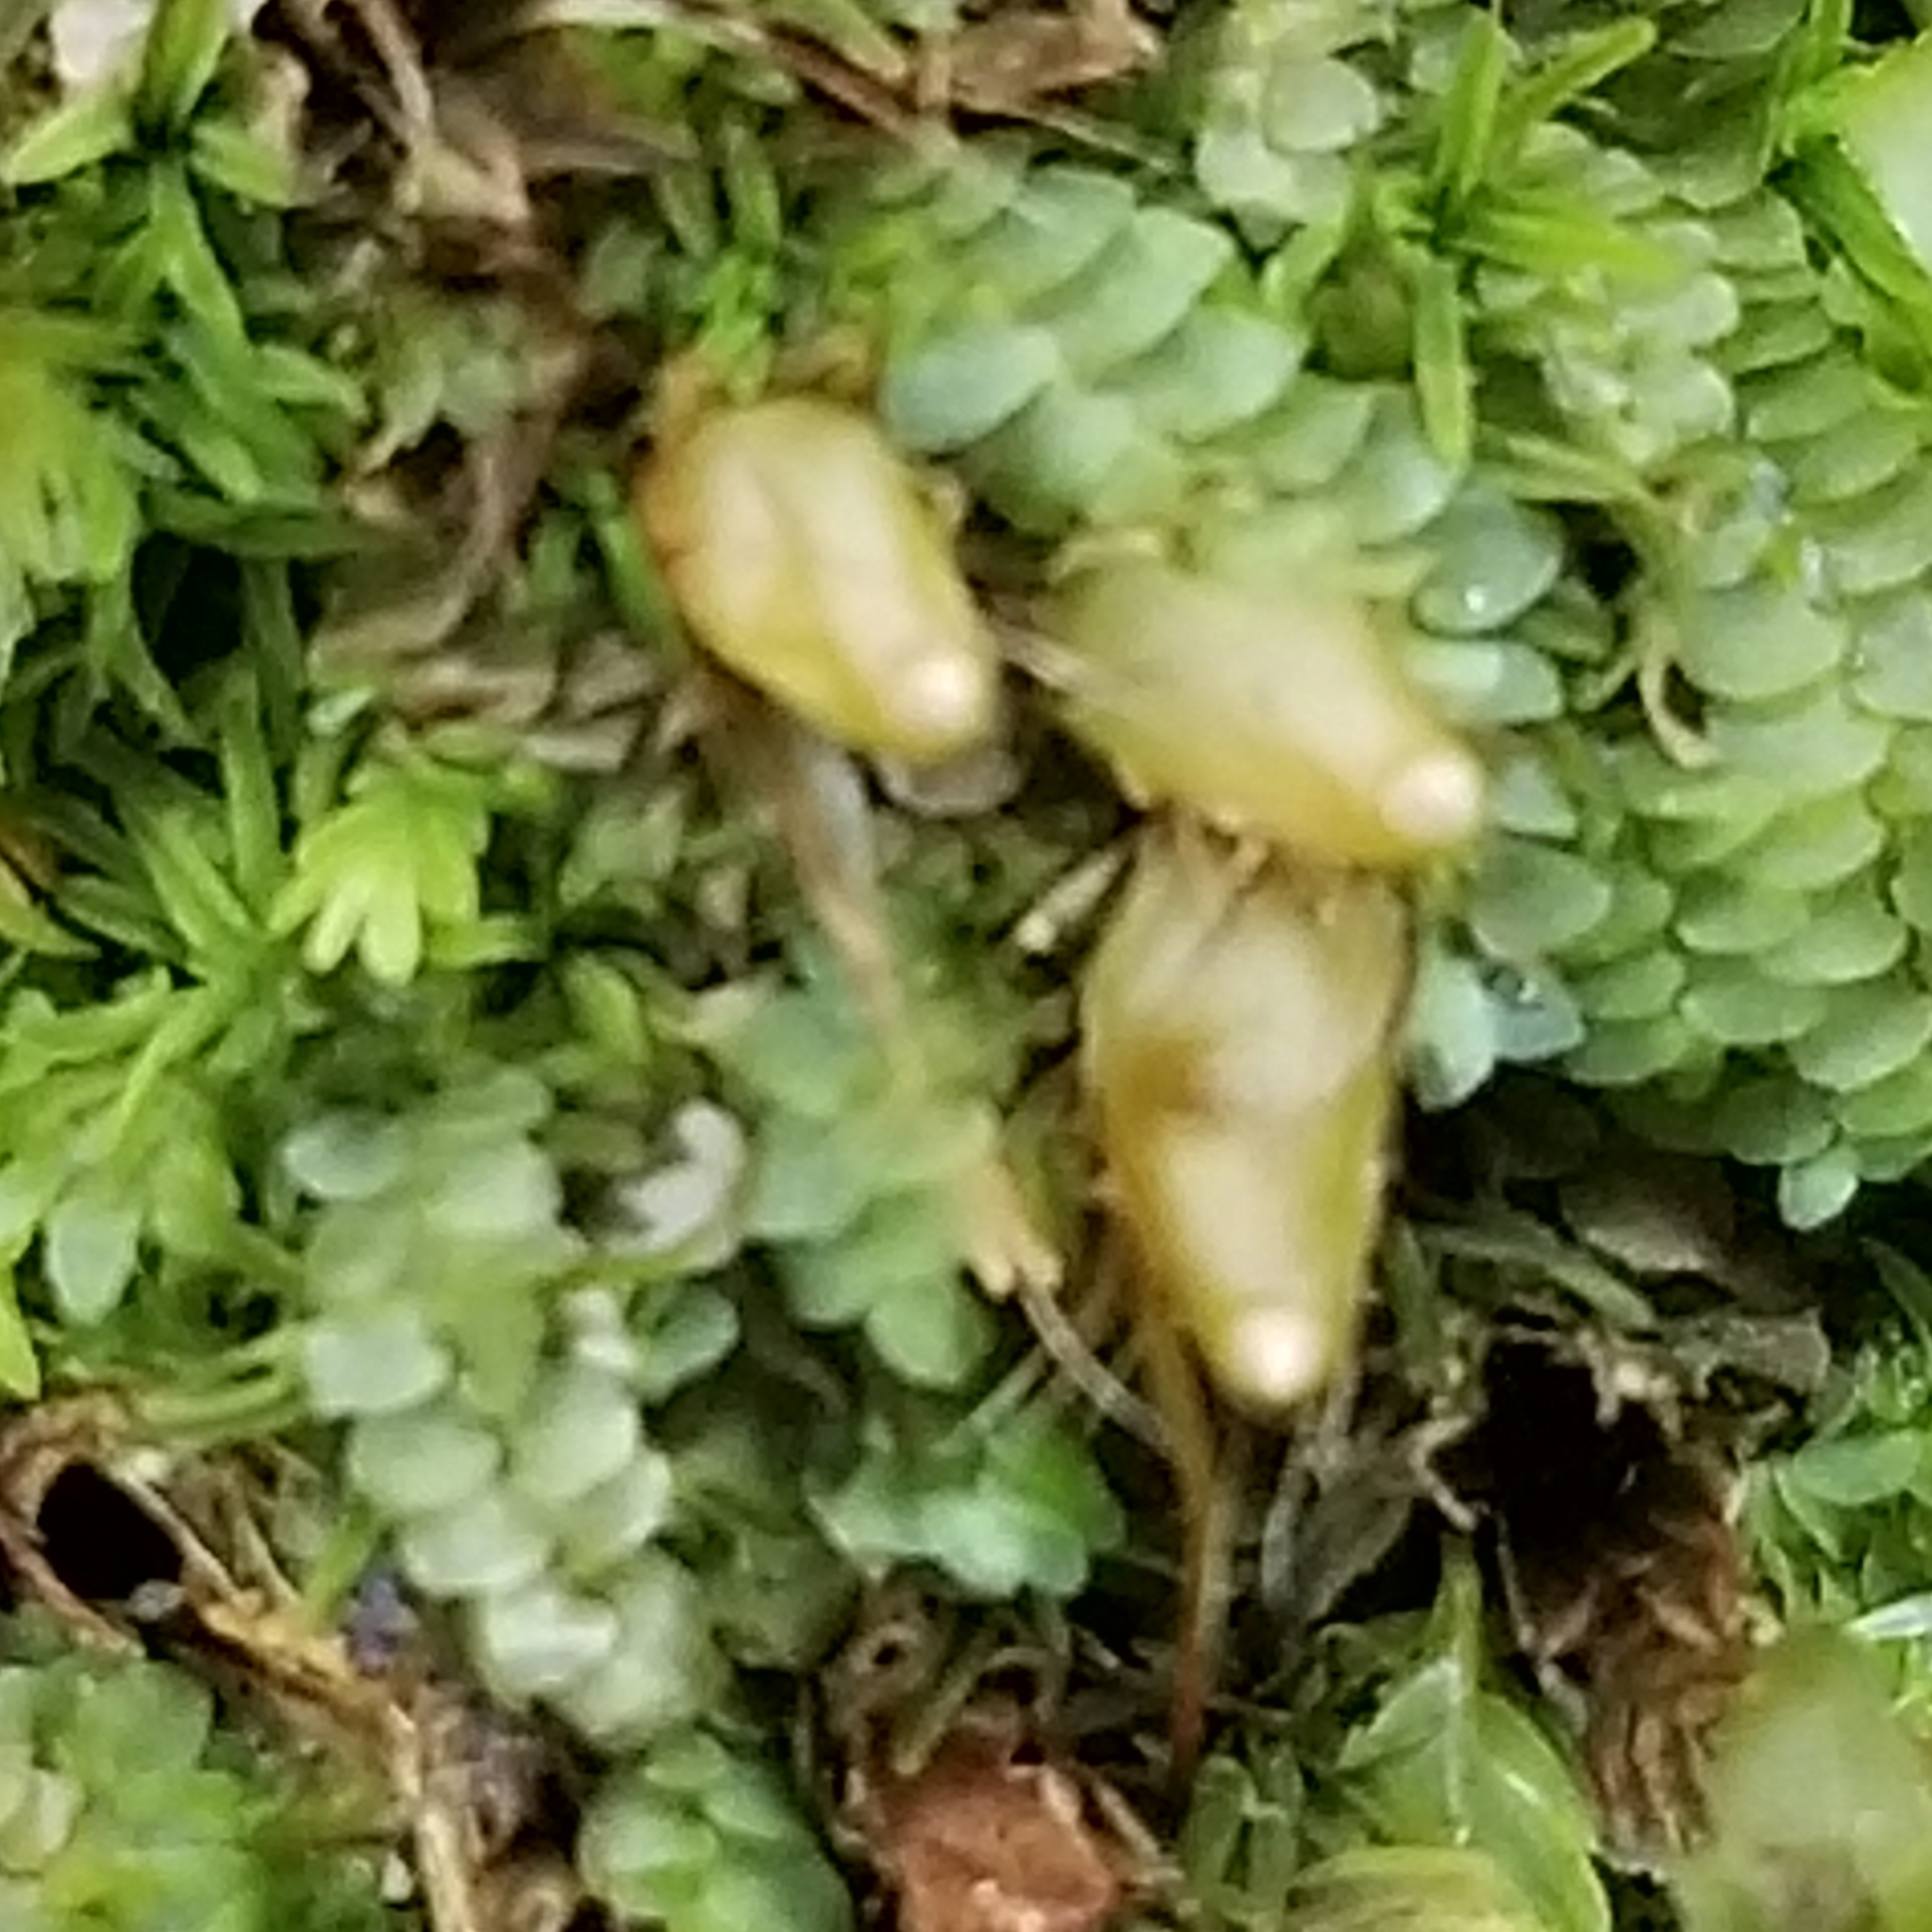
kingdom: Plantae
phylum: Bryophyta
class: Bryopsida
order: Diphysciales
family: Diphysciaceae
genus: Diphyscium
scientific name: Diphyscium foliosum
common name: Nut moss
